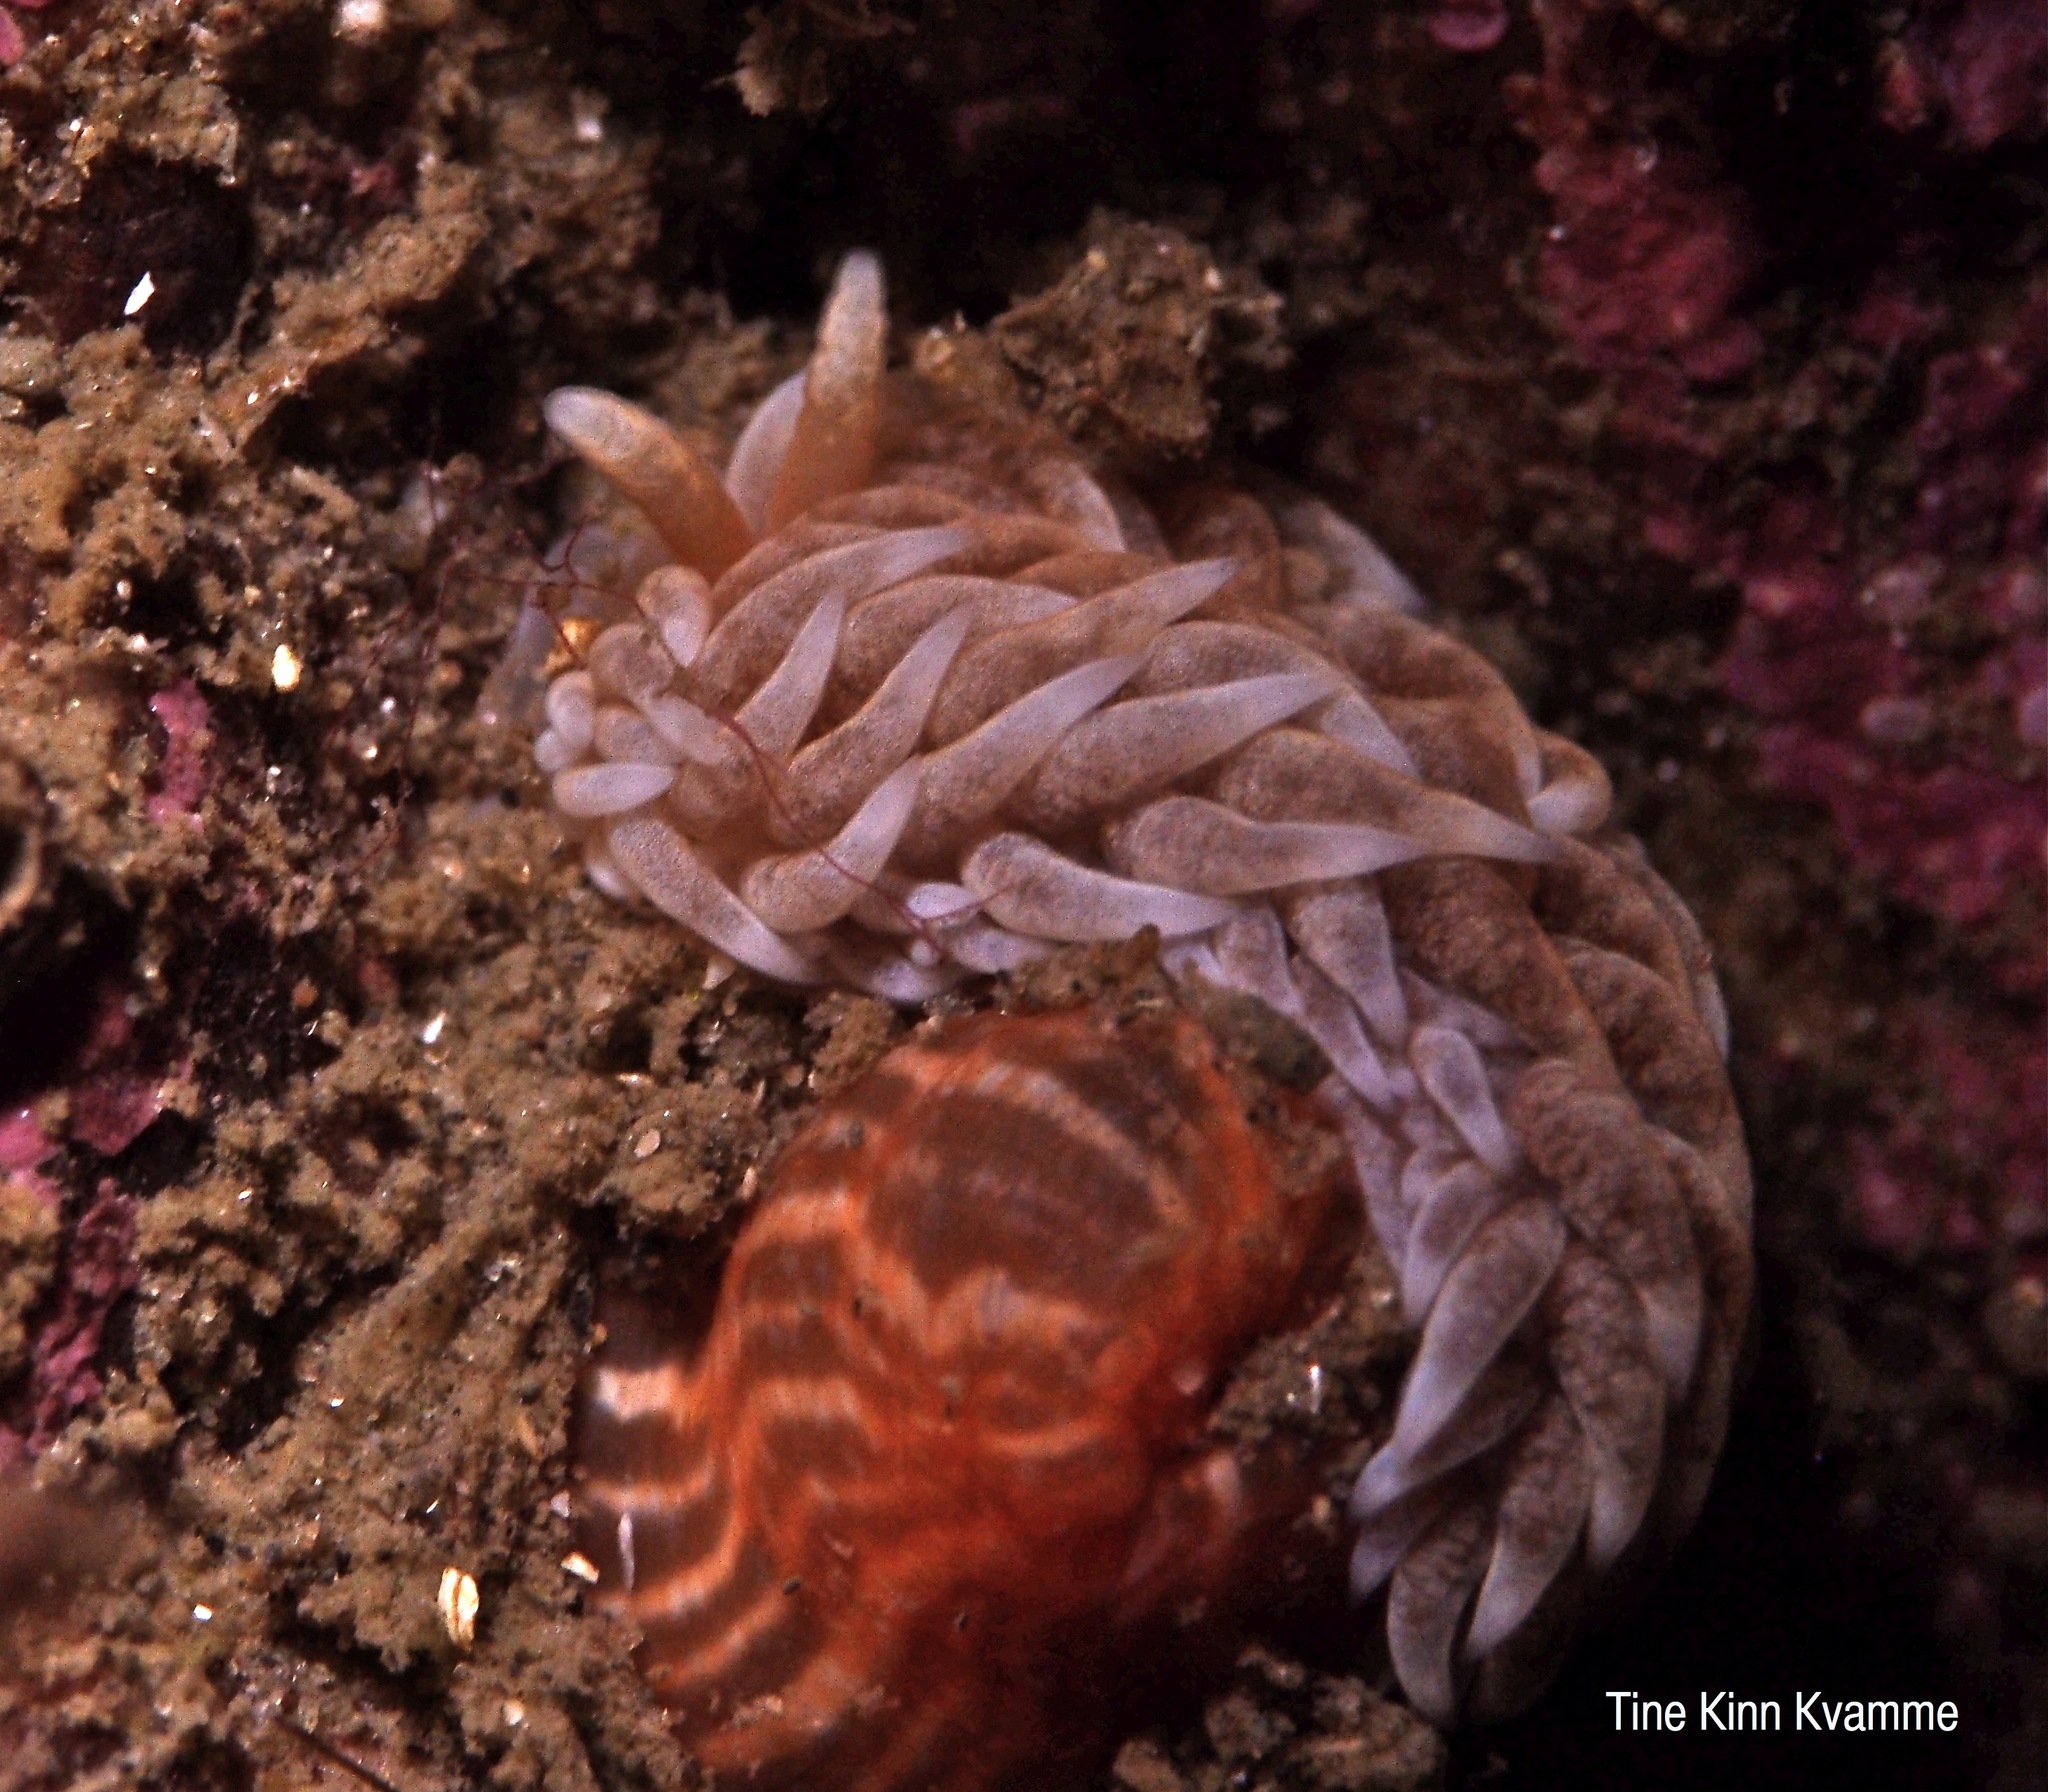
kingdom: Animalia
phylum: Mollusca
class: Gastropoda
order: Nudibranchia
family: Aeolidiidae
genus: Aeolidiella
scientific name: Aeolidiella glauca
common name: Orange-brown aeolid
